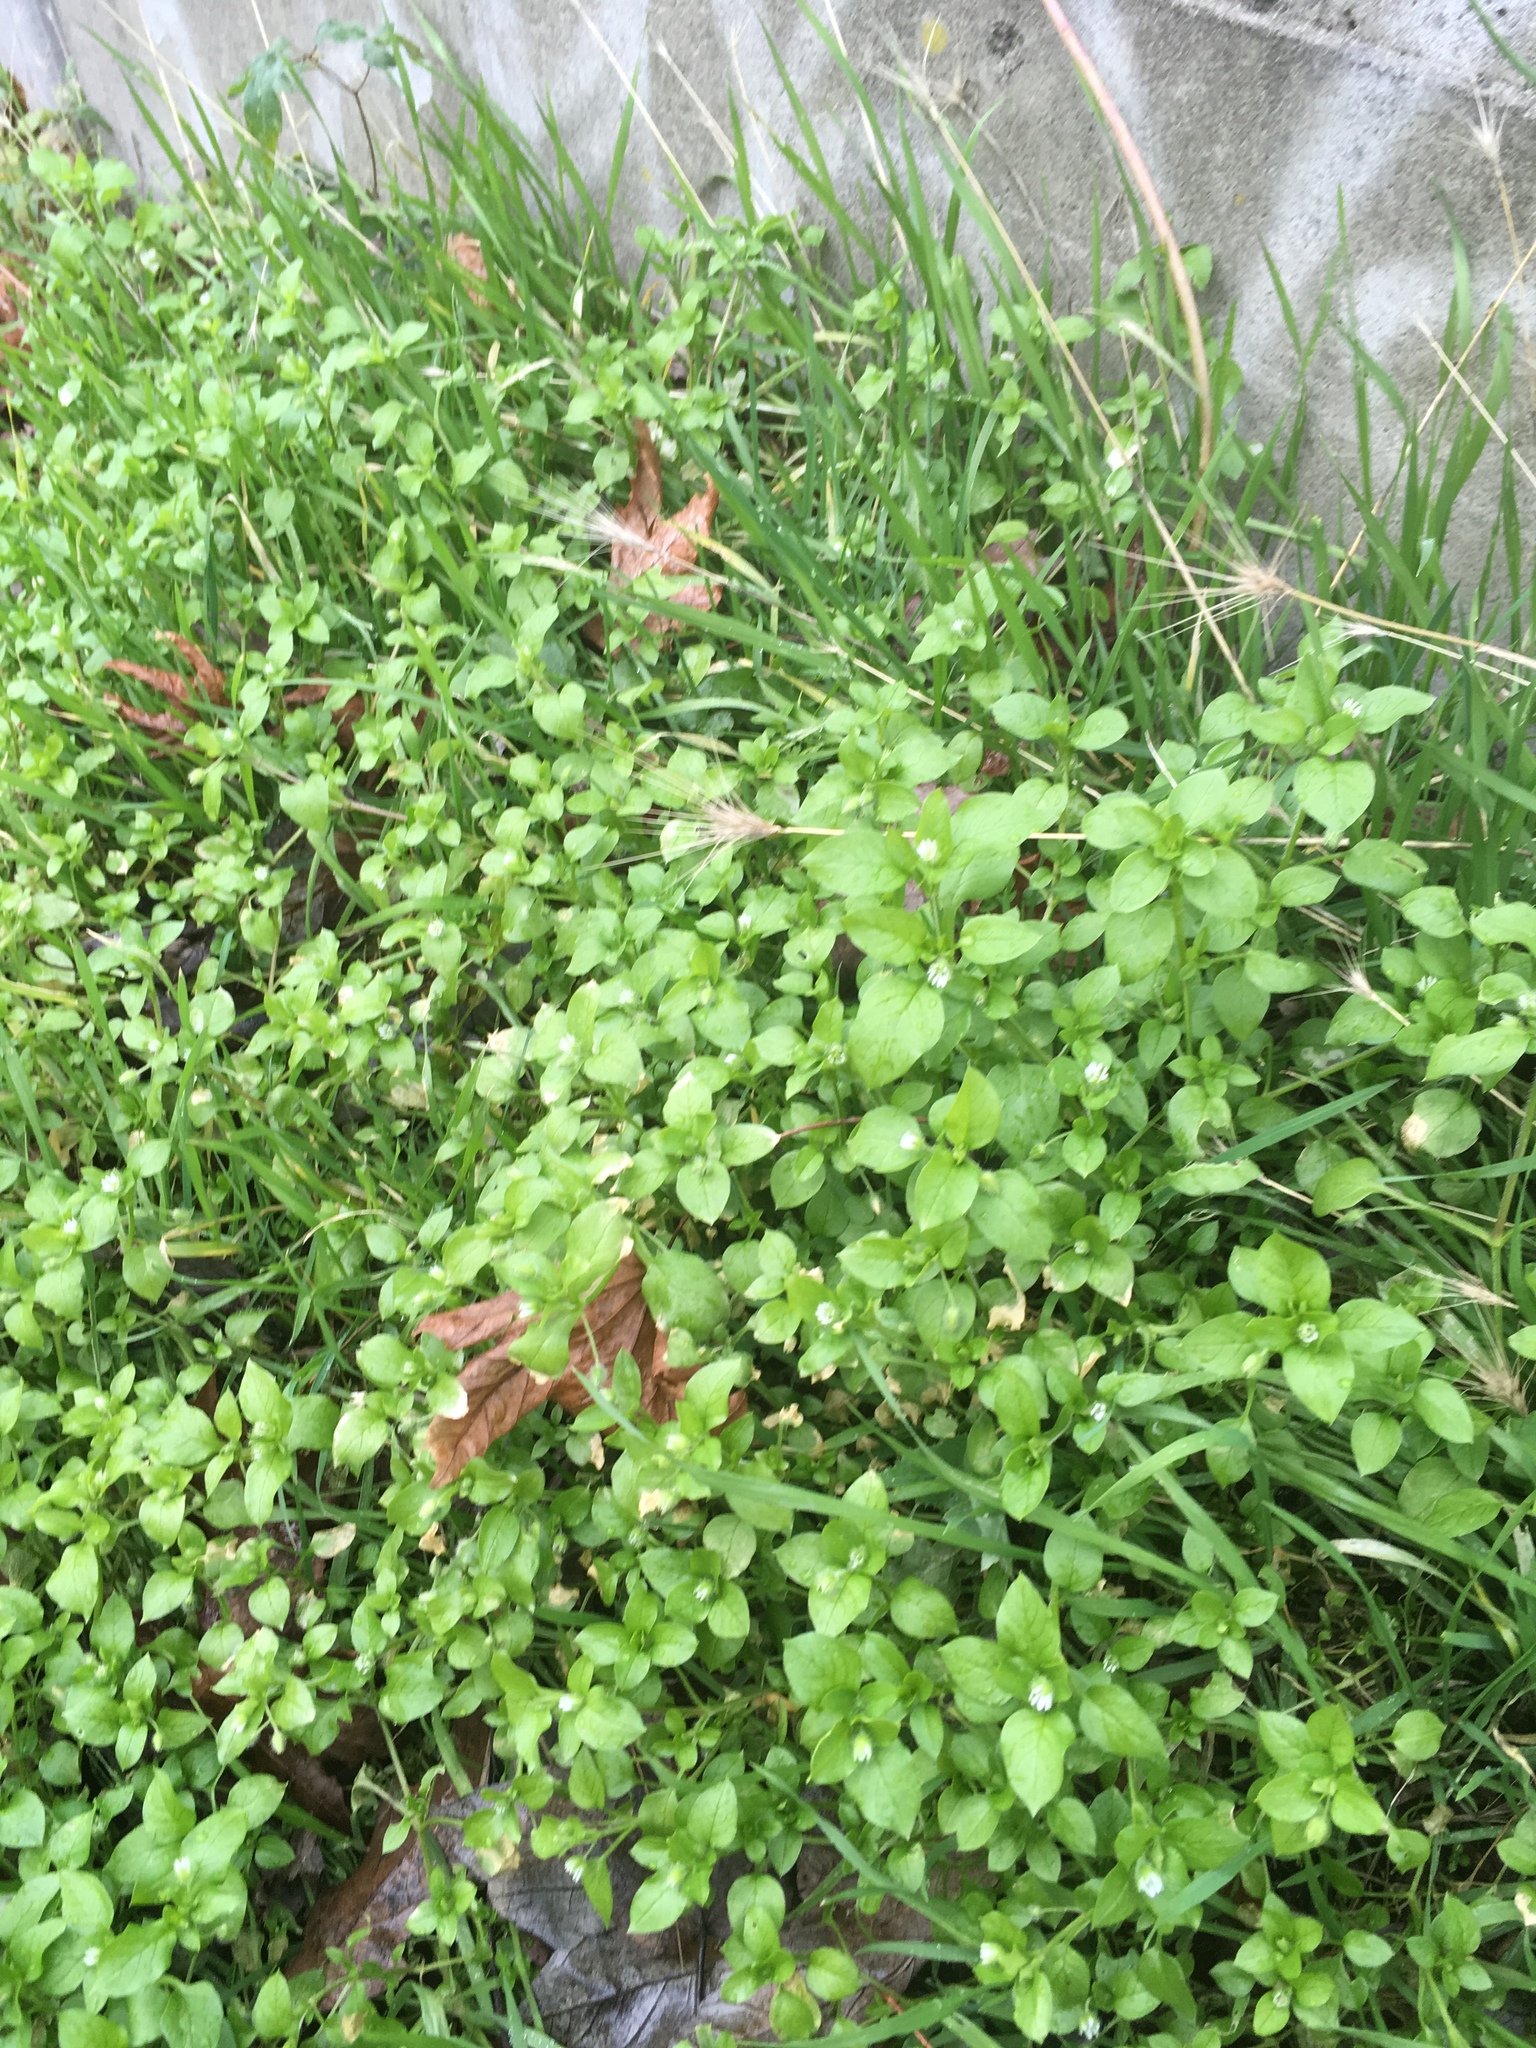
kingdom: Plantae
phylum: Tracheophyta
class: Magnoliopsida
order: Caryophyllales
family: Caryophyllaceae
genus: Stellaria
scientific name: Stellaria media
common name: Common chickweed
